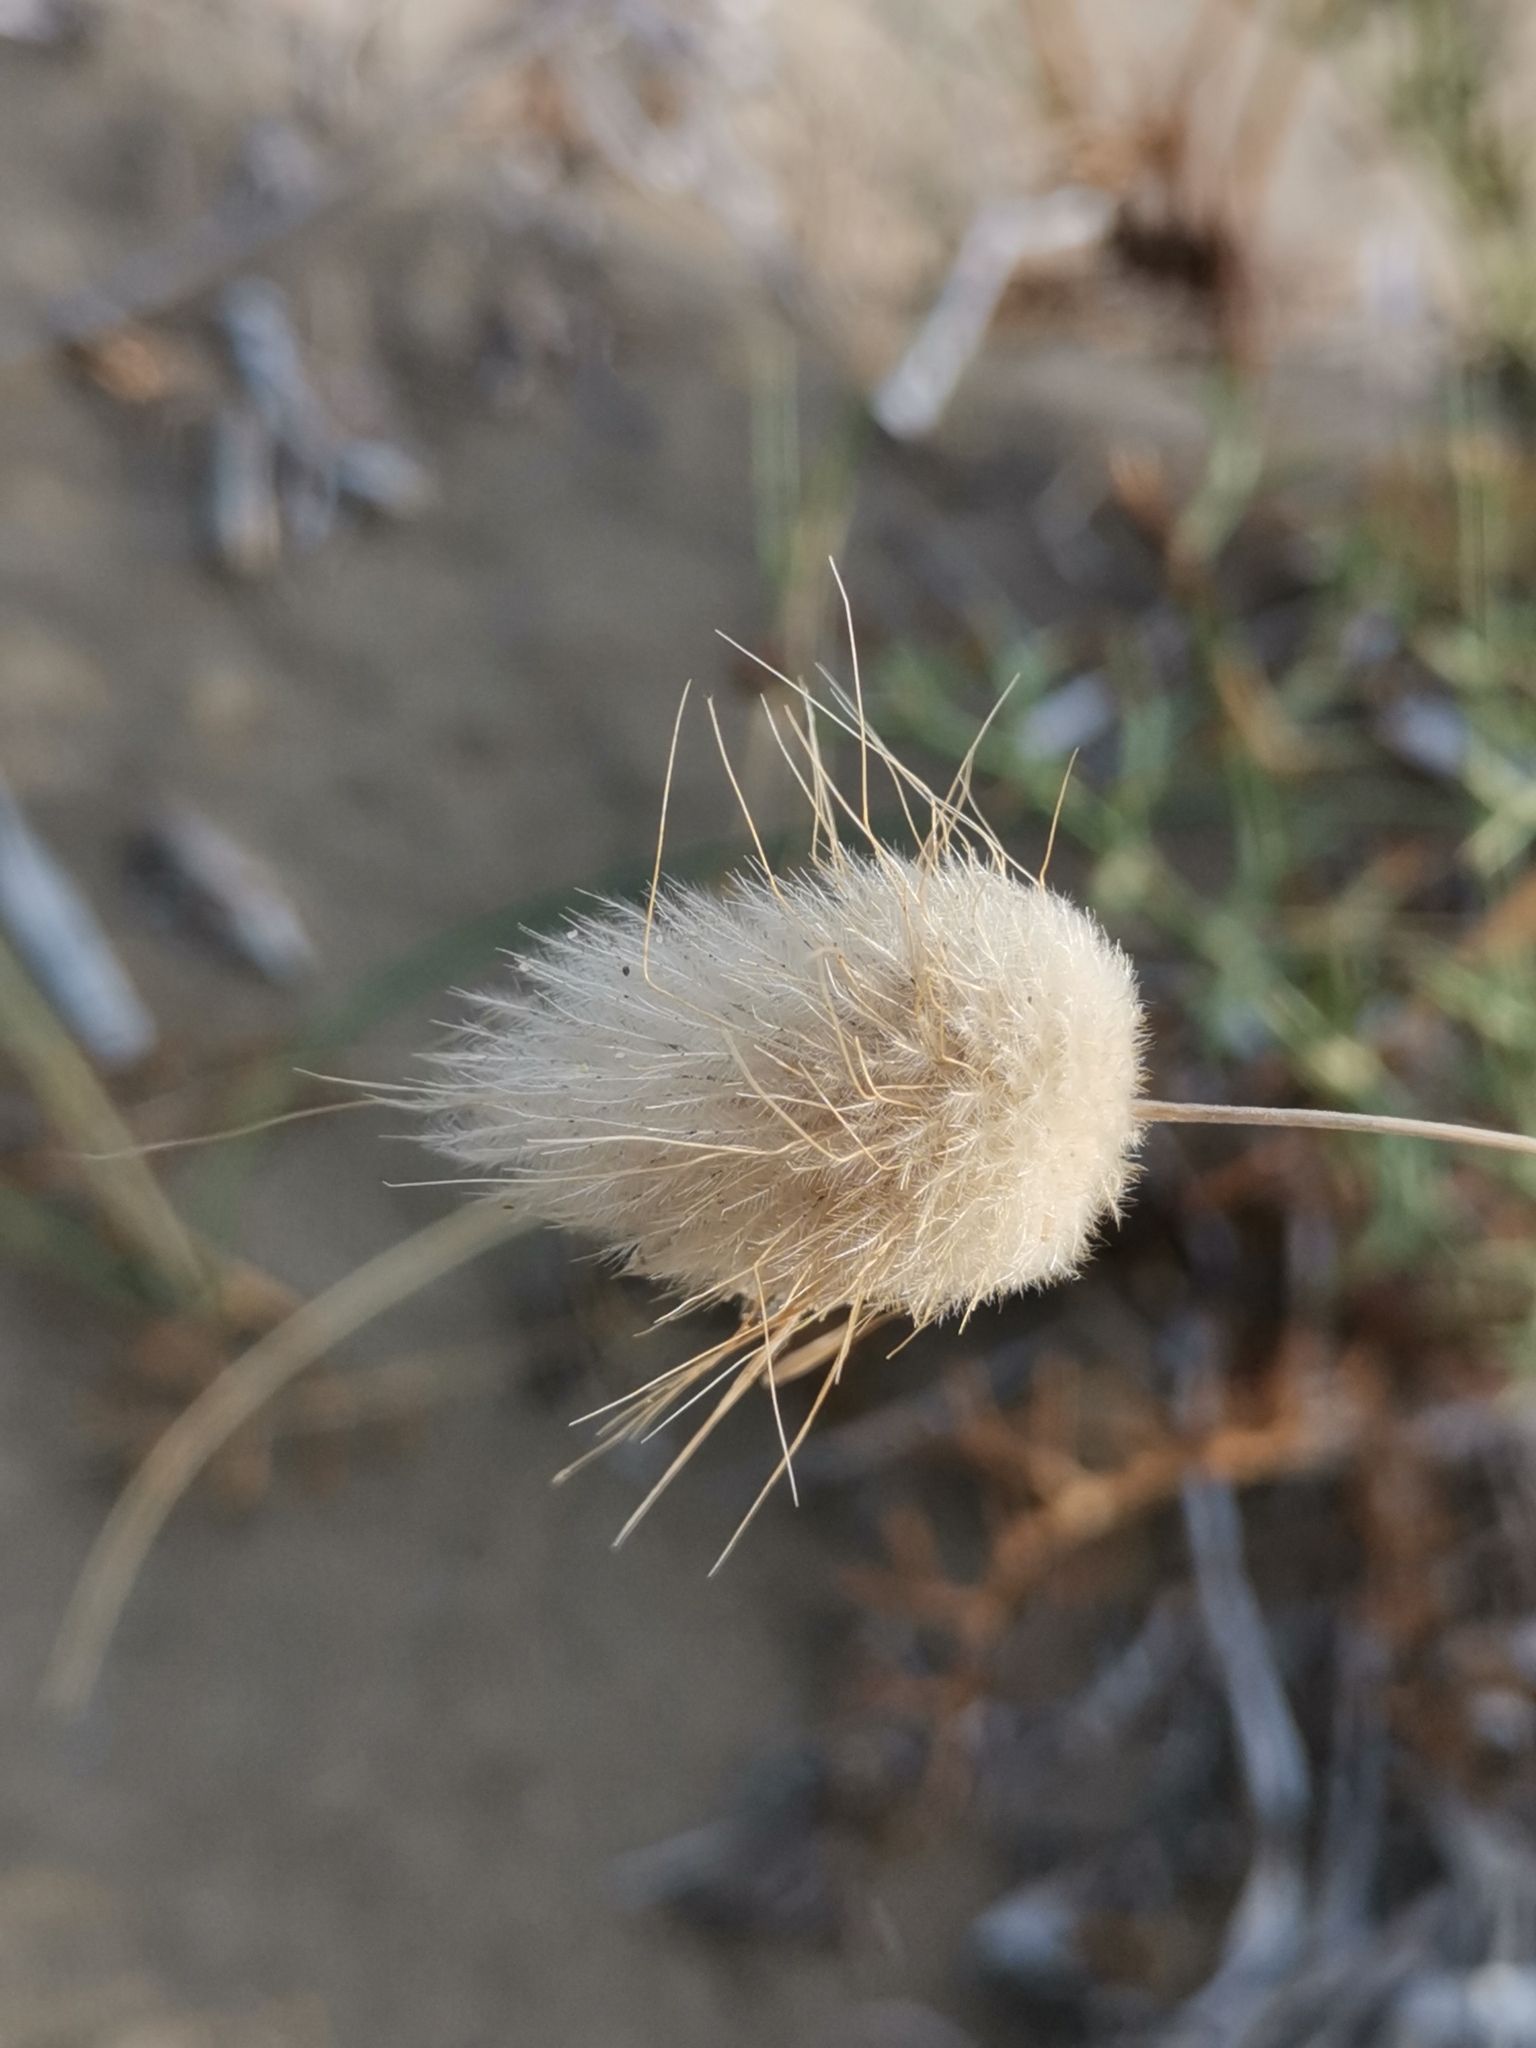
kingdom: Plantae
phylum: Tracheophyta
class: Liliopsida
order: Poales
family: Poaceae
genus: Lagurus
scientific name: Lagurus ovatus
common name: Hare's-tail
